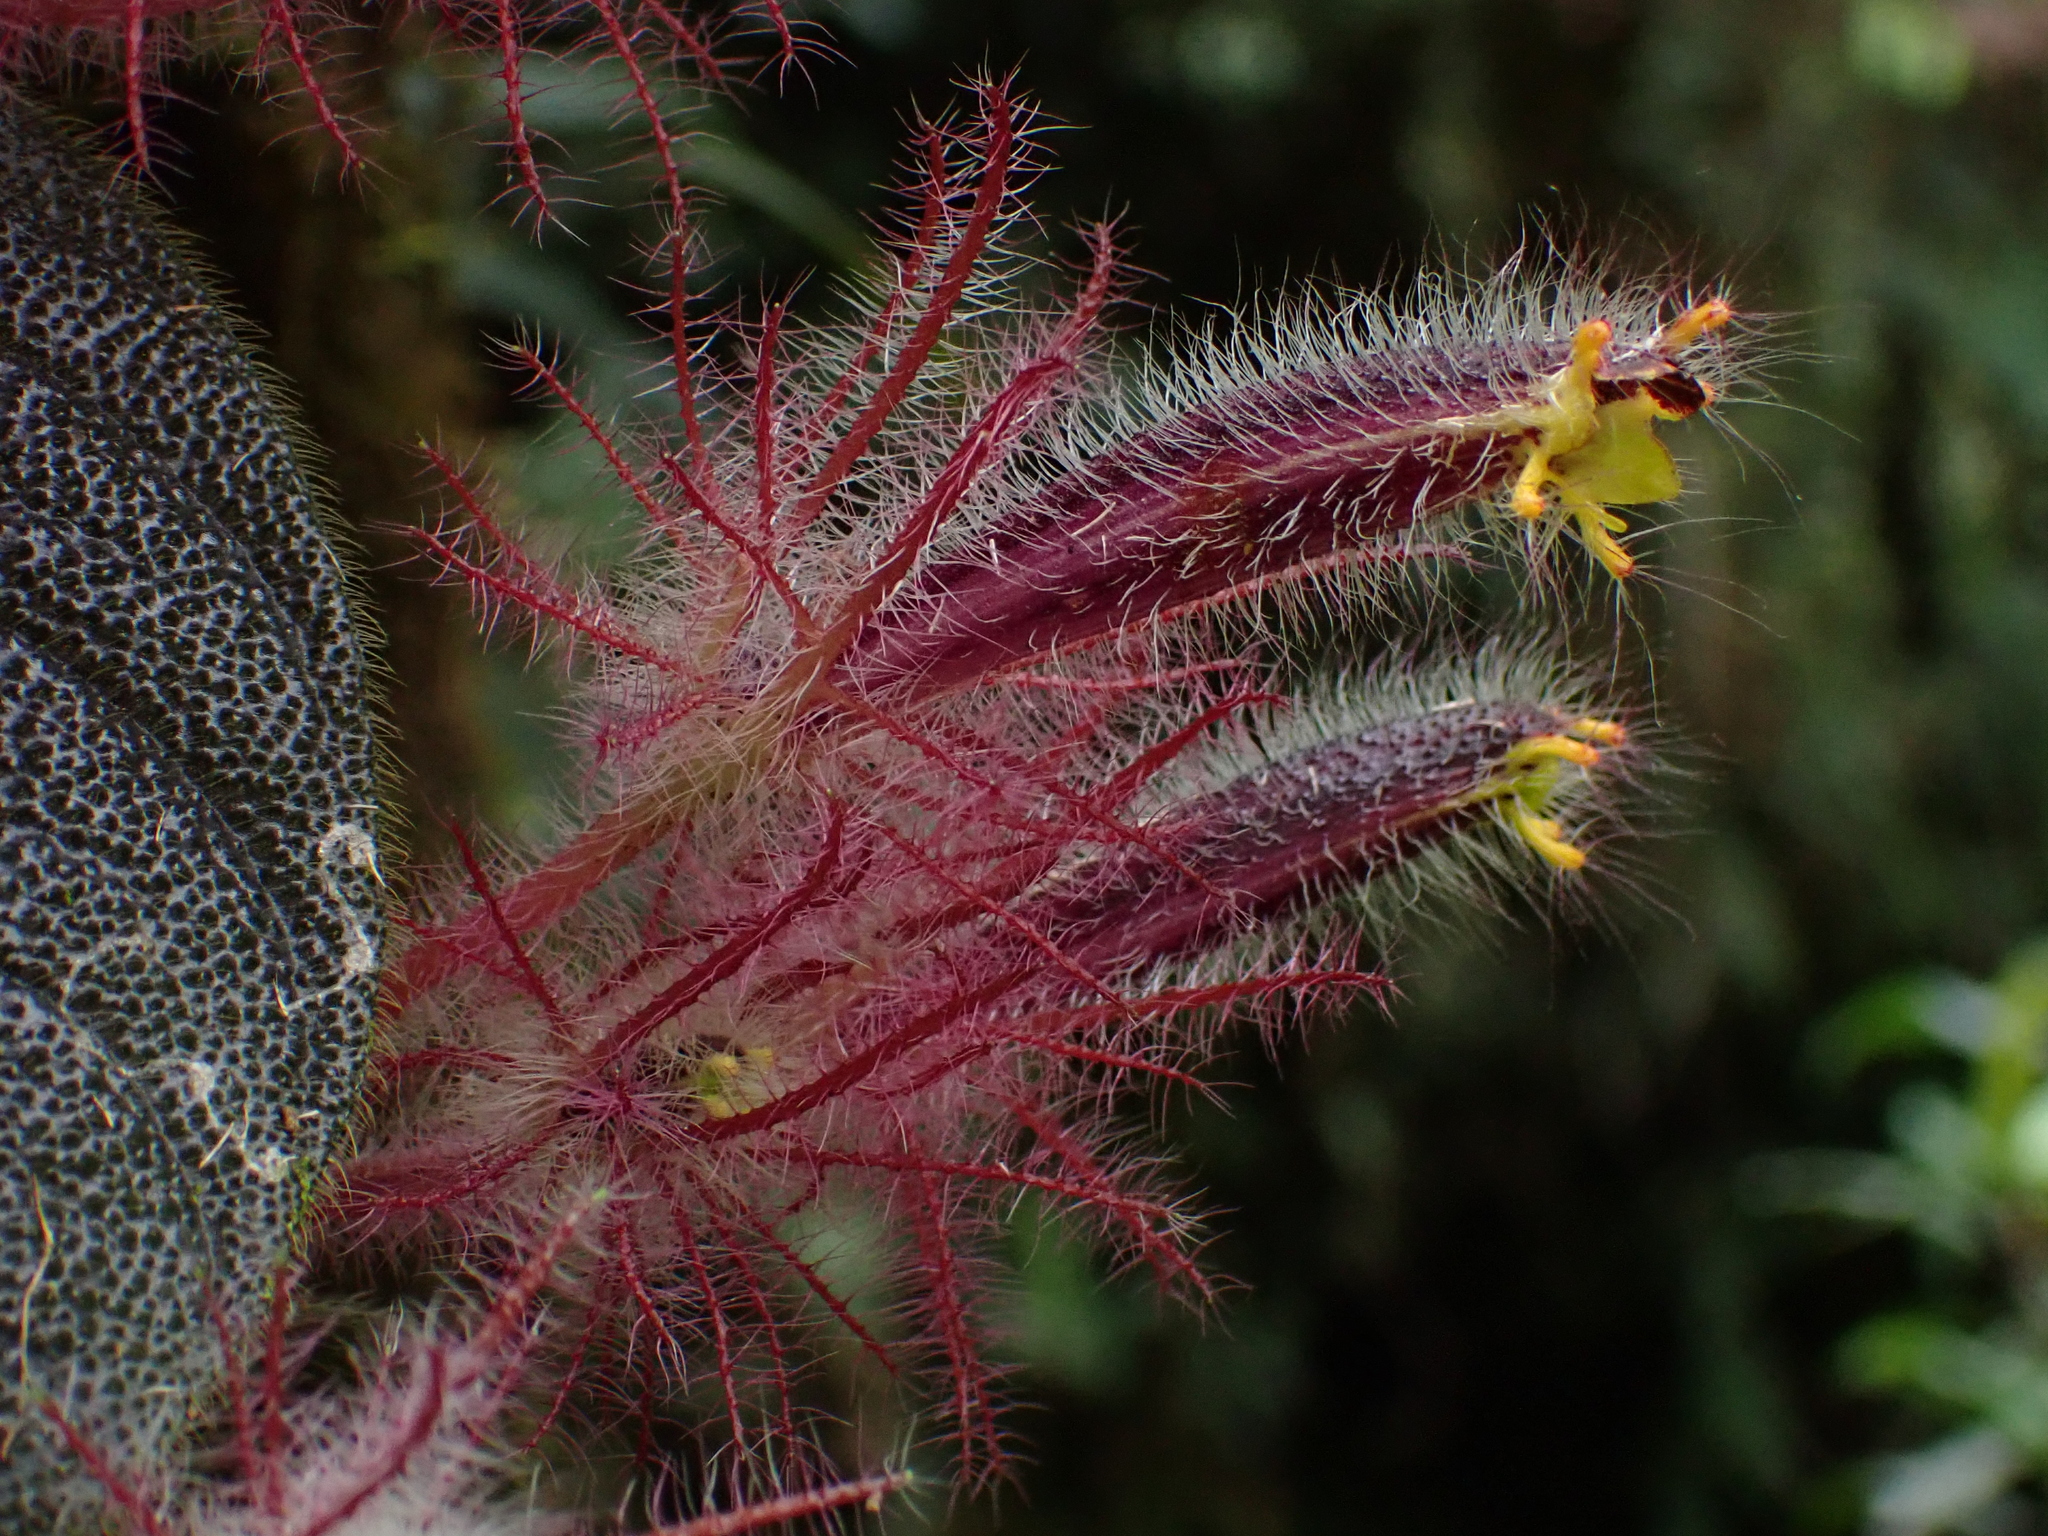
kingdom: Plantae
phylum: Tracheophyta
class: Magnoliopsida
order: Lamiales
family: Gesneriaceae
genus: Columnea
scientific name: Columnea minor
